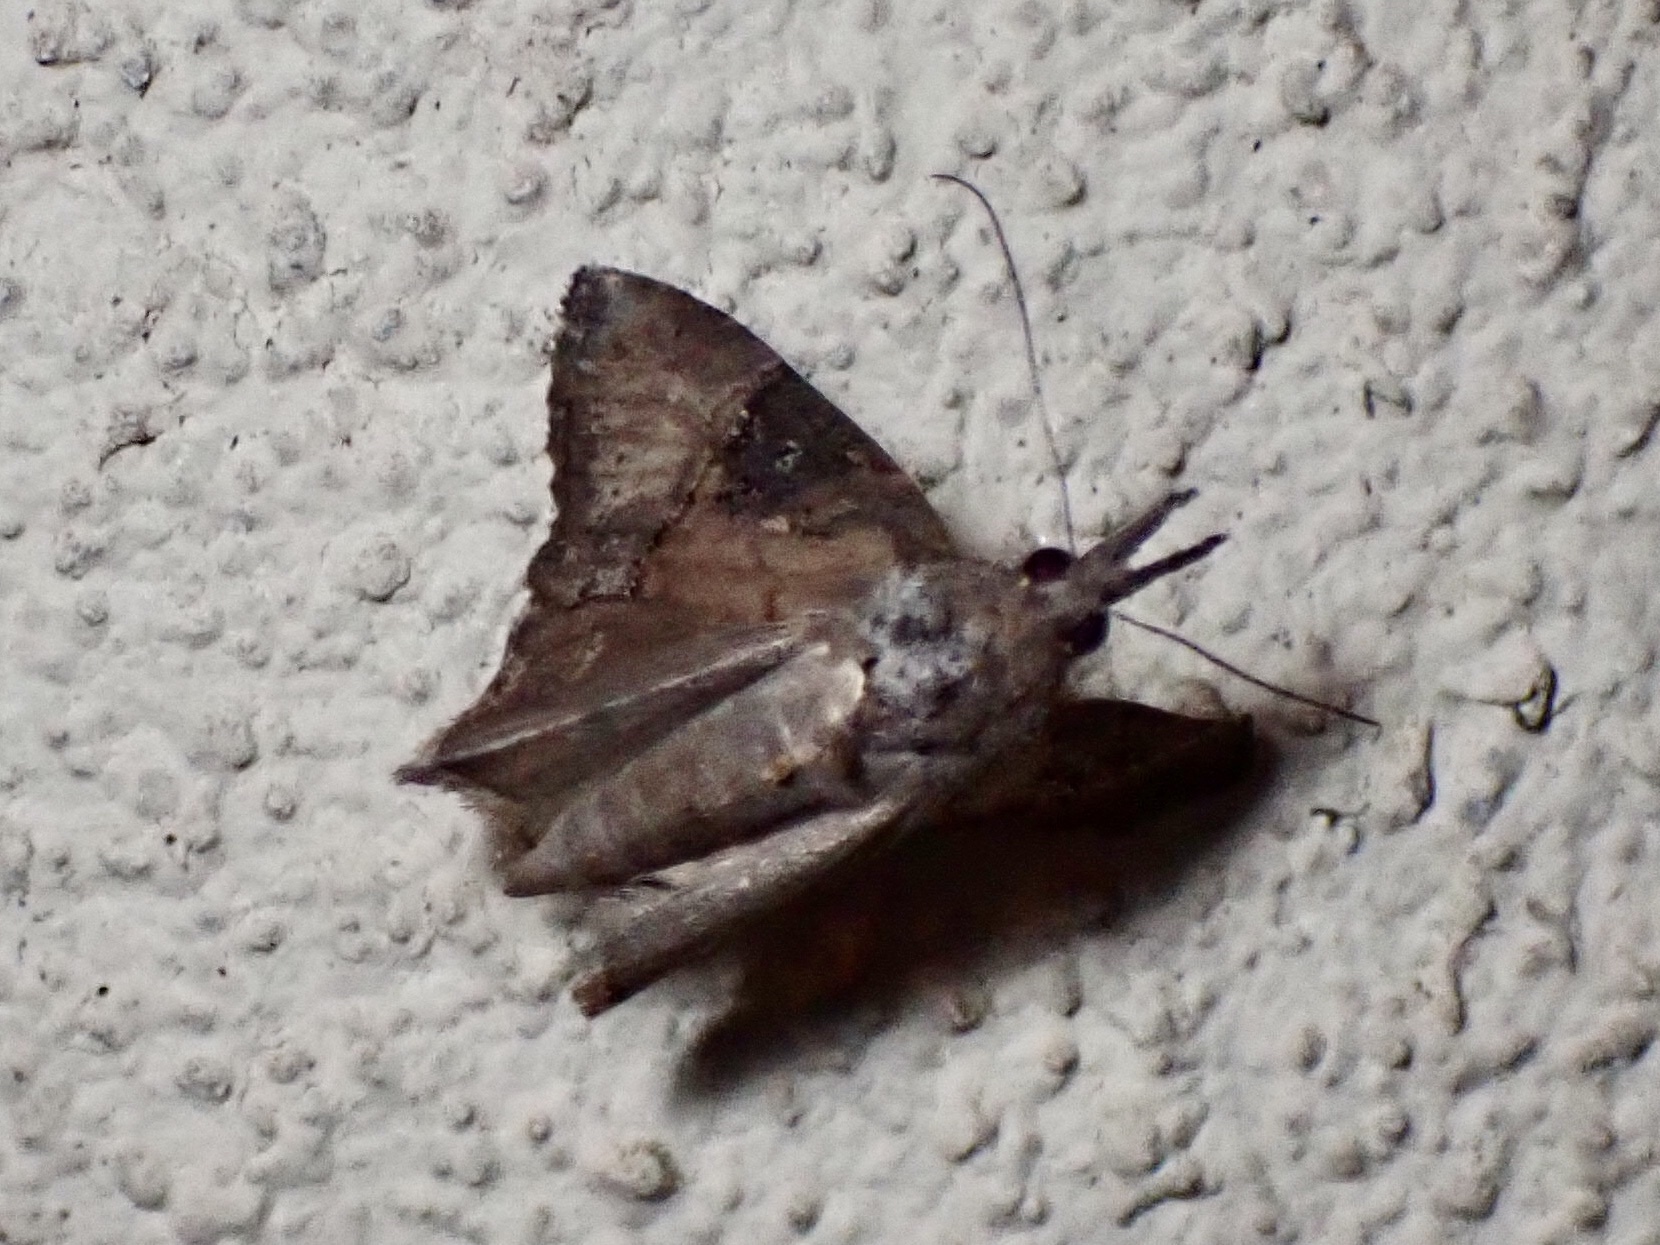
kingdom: Animalia
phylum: Arthropoda
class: Insecta
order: Lepidoptera
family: Erebidae
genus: Hypena
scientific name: Hypena scabra
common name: Green cloverworm
